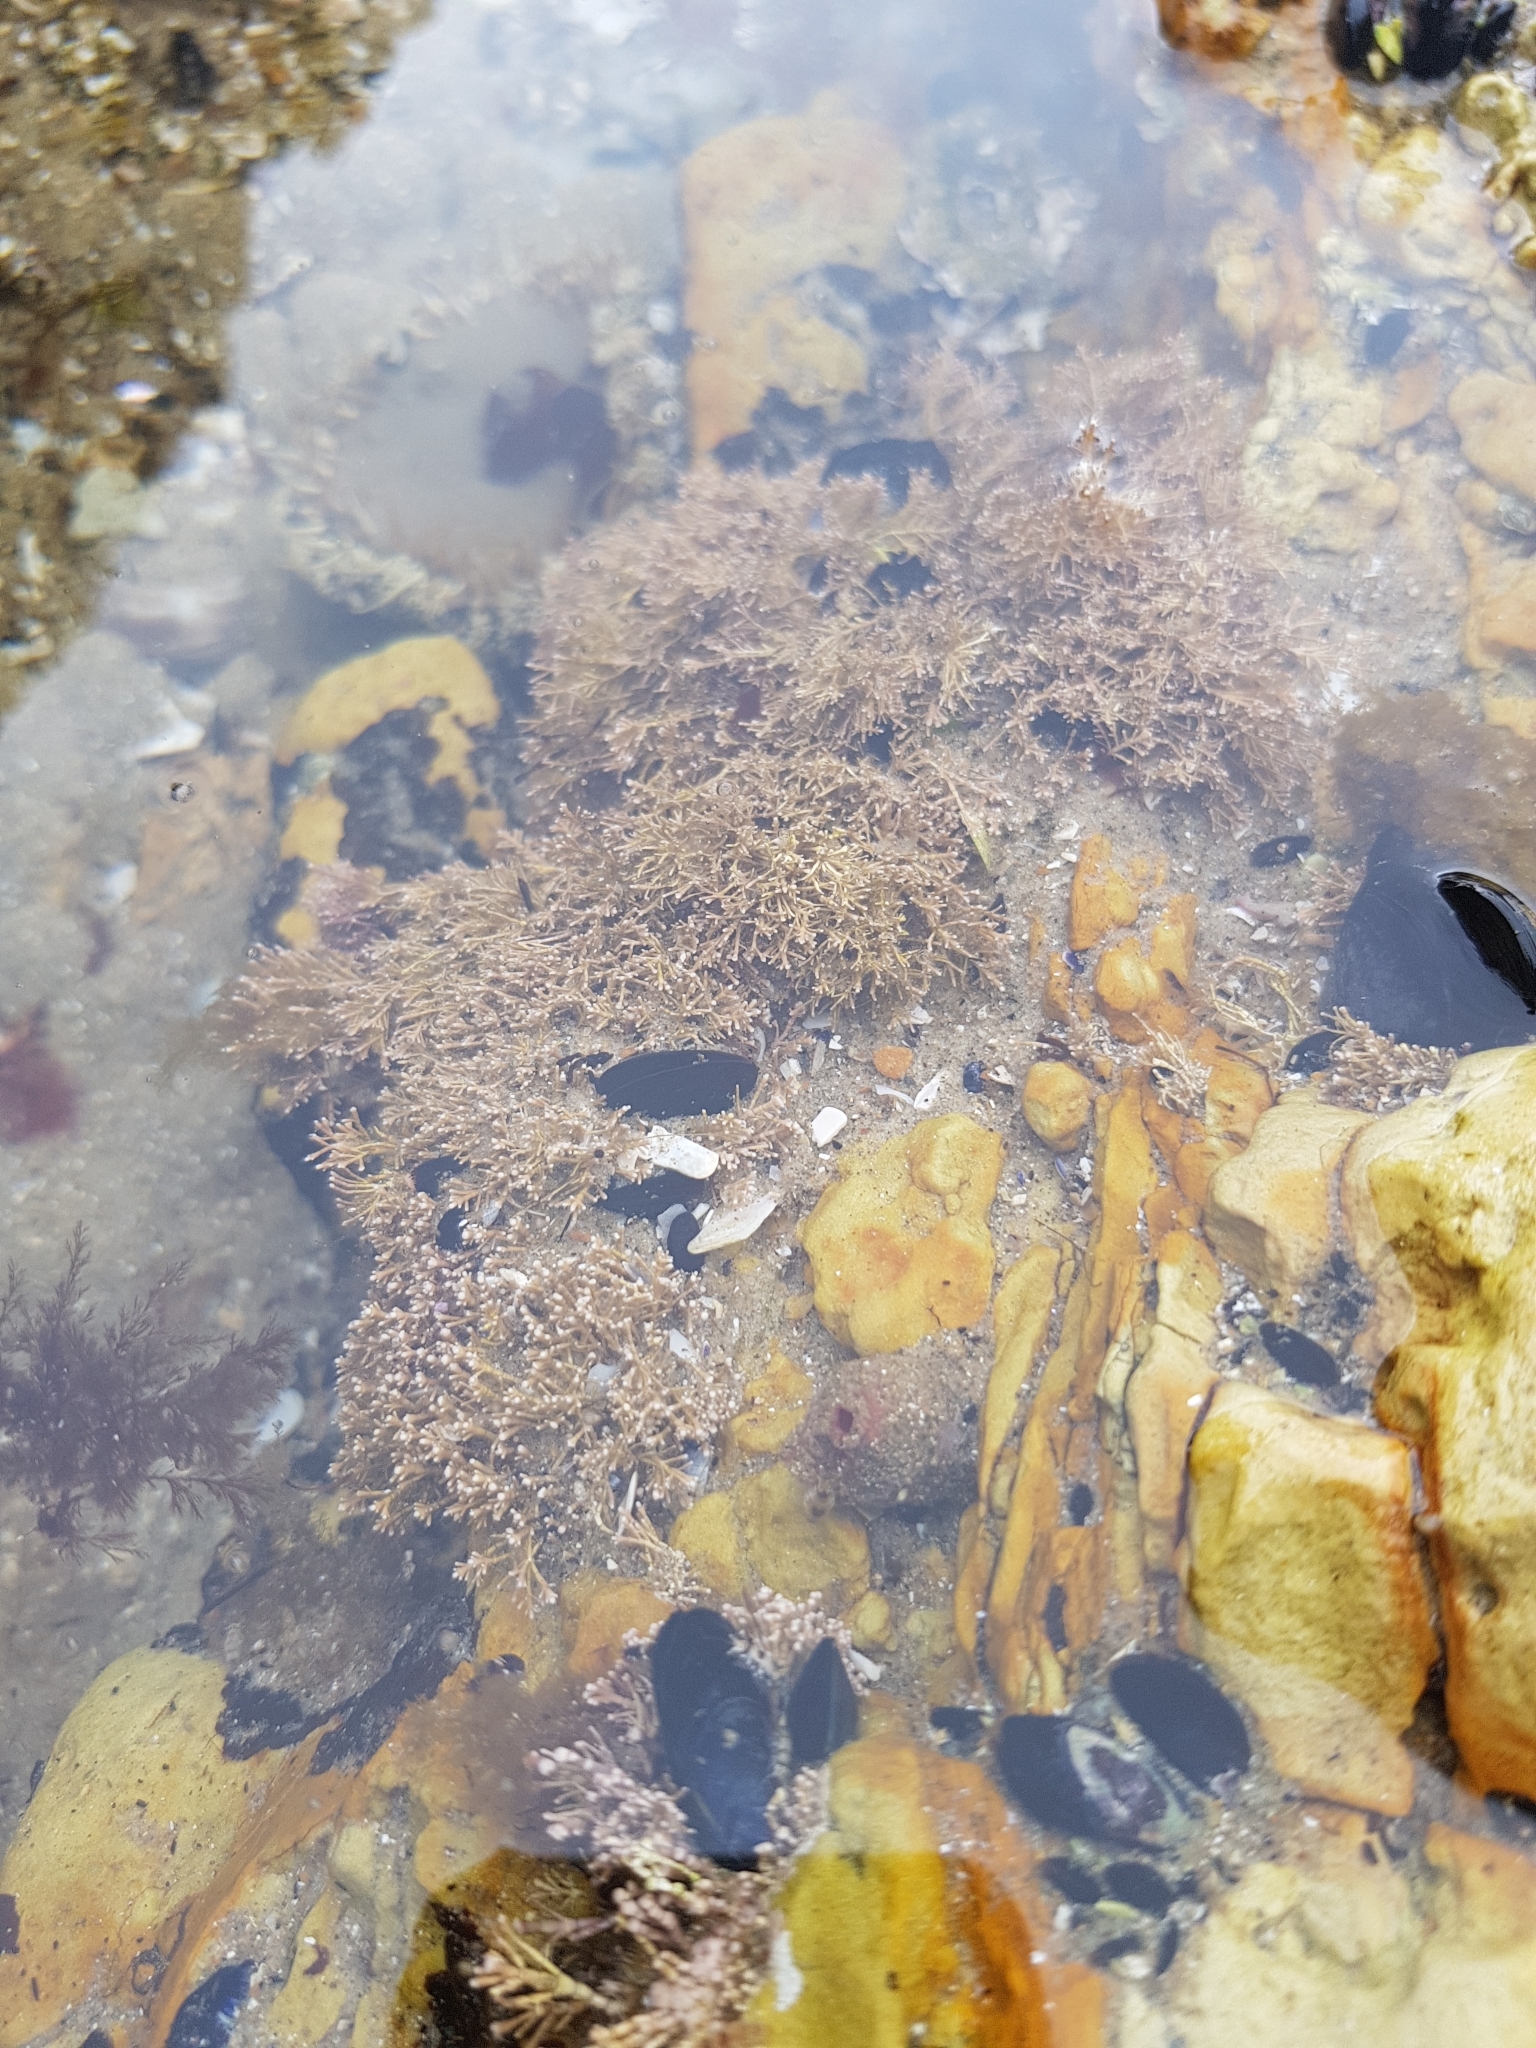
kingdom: Plantae
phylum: Rhodophyta
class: Florideophyceae
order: Corallinales
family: Corallinaceae
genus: Corallina
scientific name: Corallina officinalis
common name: Coral weed
